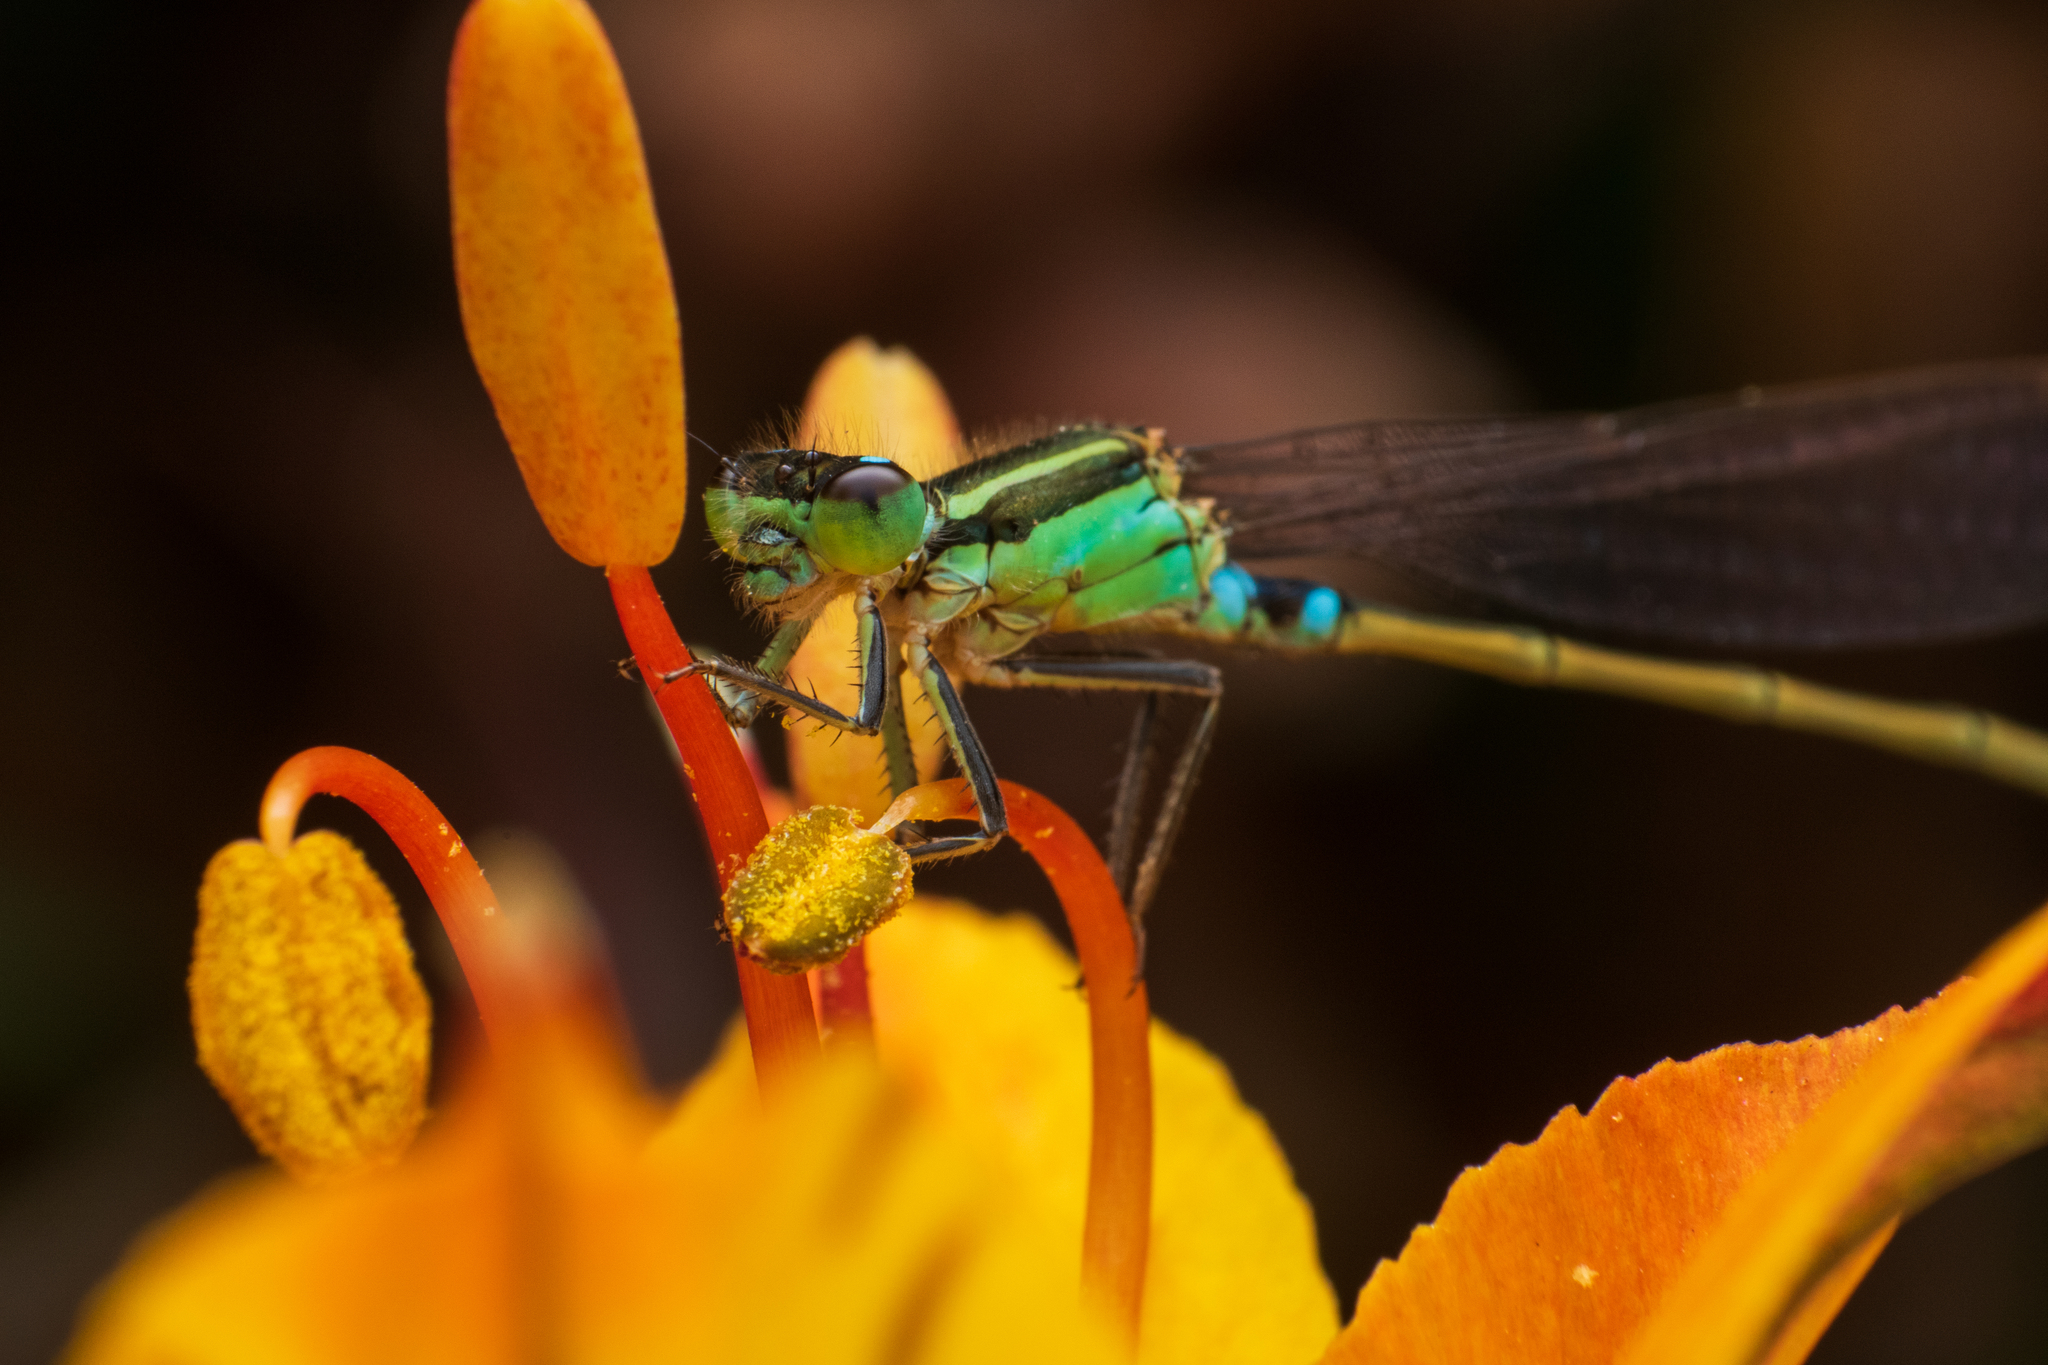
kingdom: Animalia
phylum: Arthropoda
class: Insecta
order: Odonata
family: Coenagrionidae
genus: Ischnura
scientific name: Ischnura senegalensis
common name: Tropical bluetail
